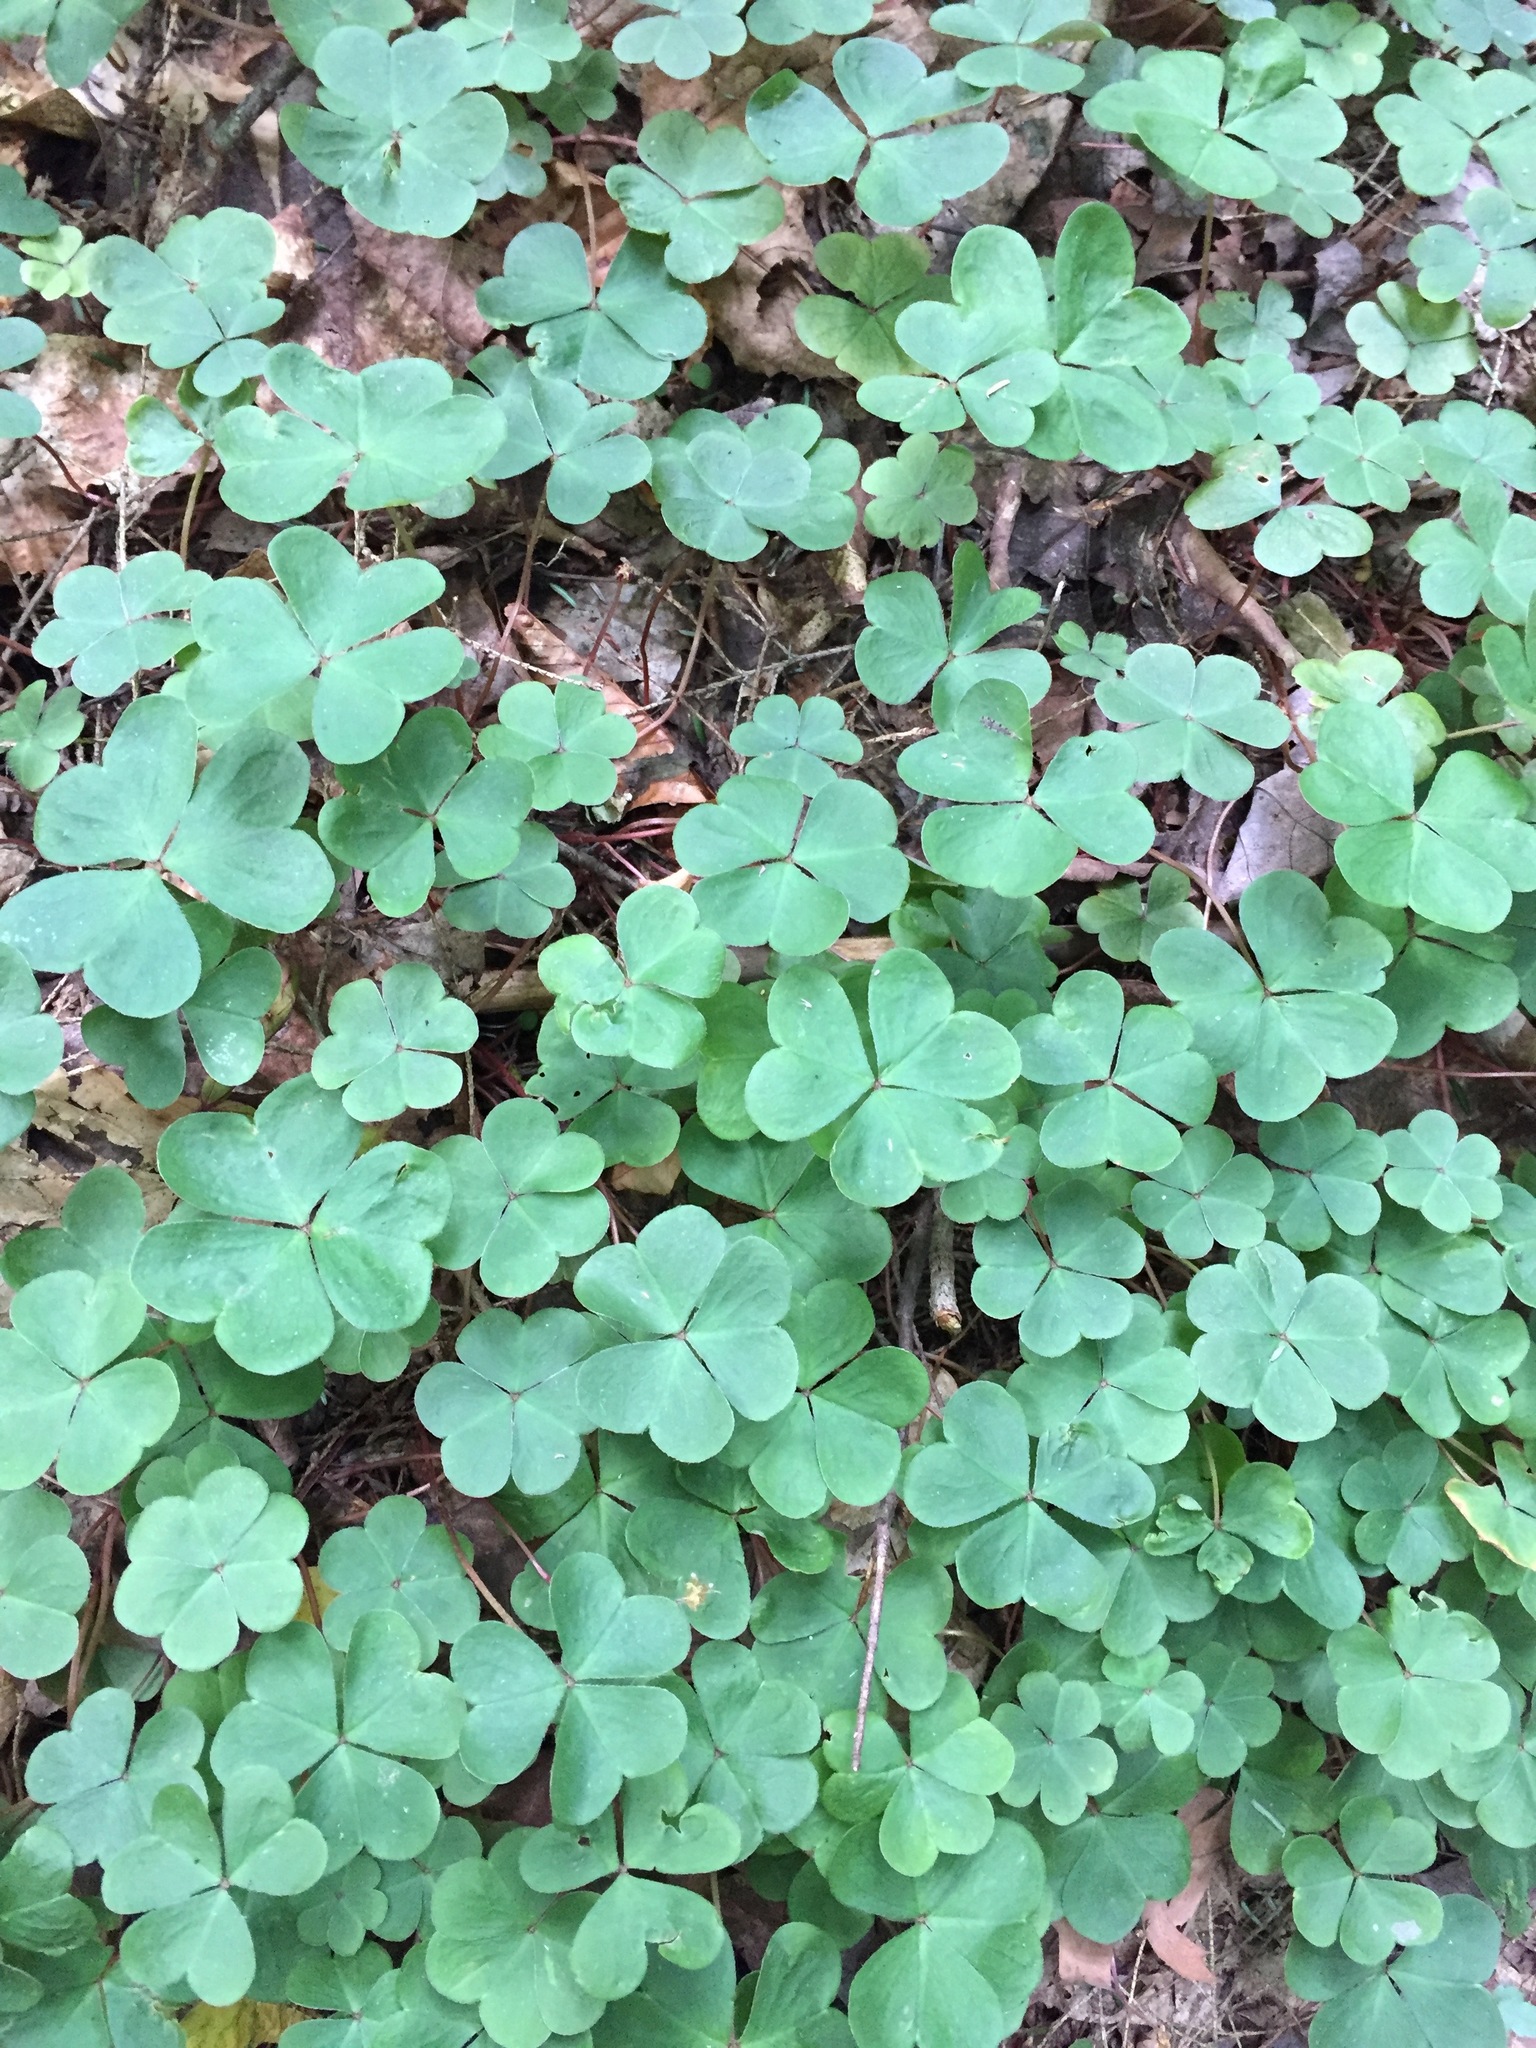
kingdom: Plantae
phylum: Tracheophyta
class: Magnoliopsida
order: Oxalidales
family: Oxalidaceae
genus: Oxalis
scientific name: Oxalis montana
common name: American wood-sorrel
